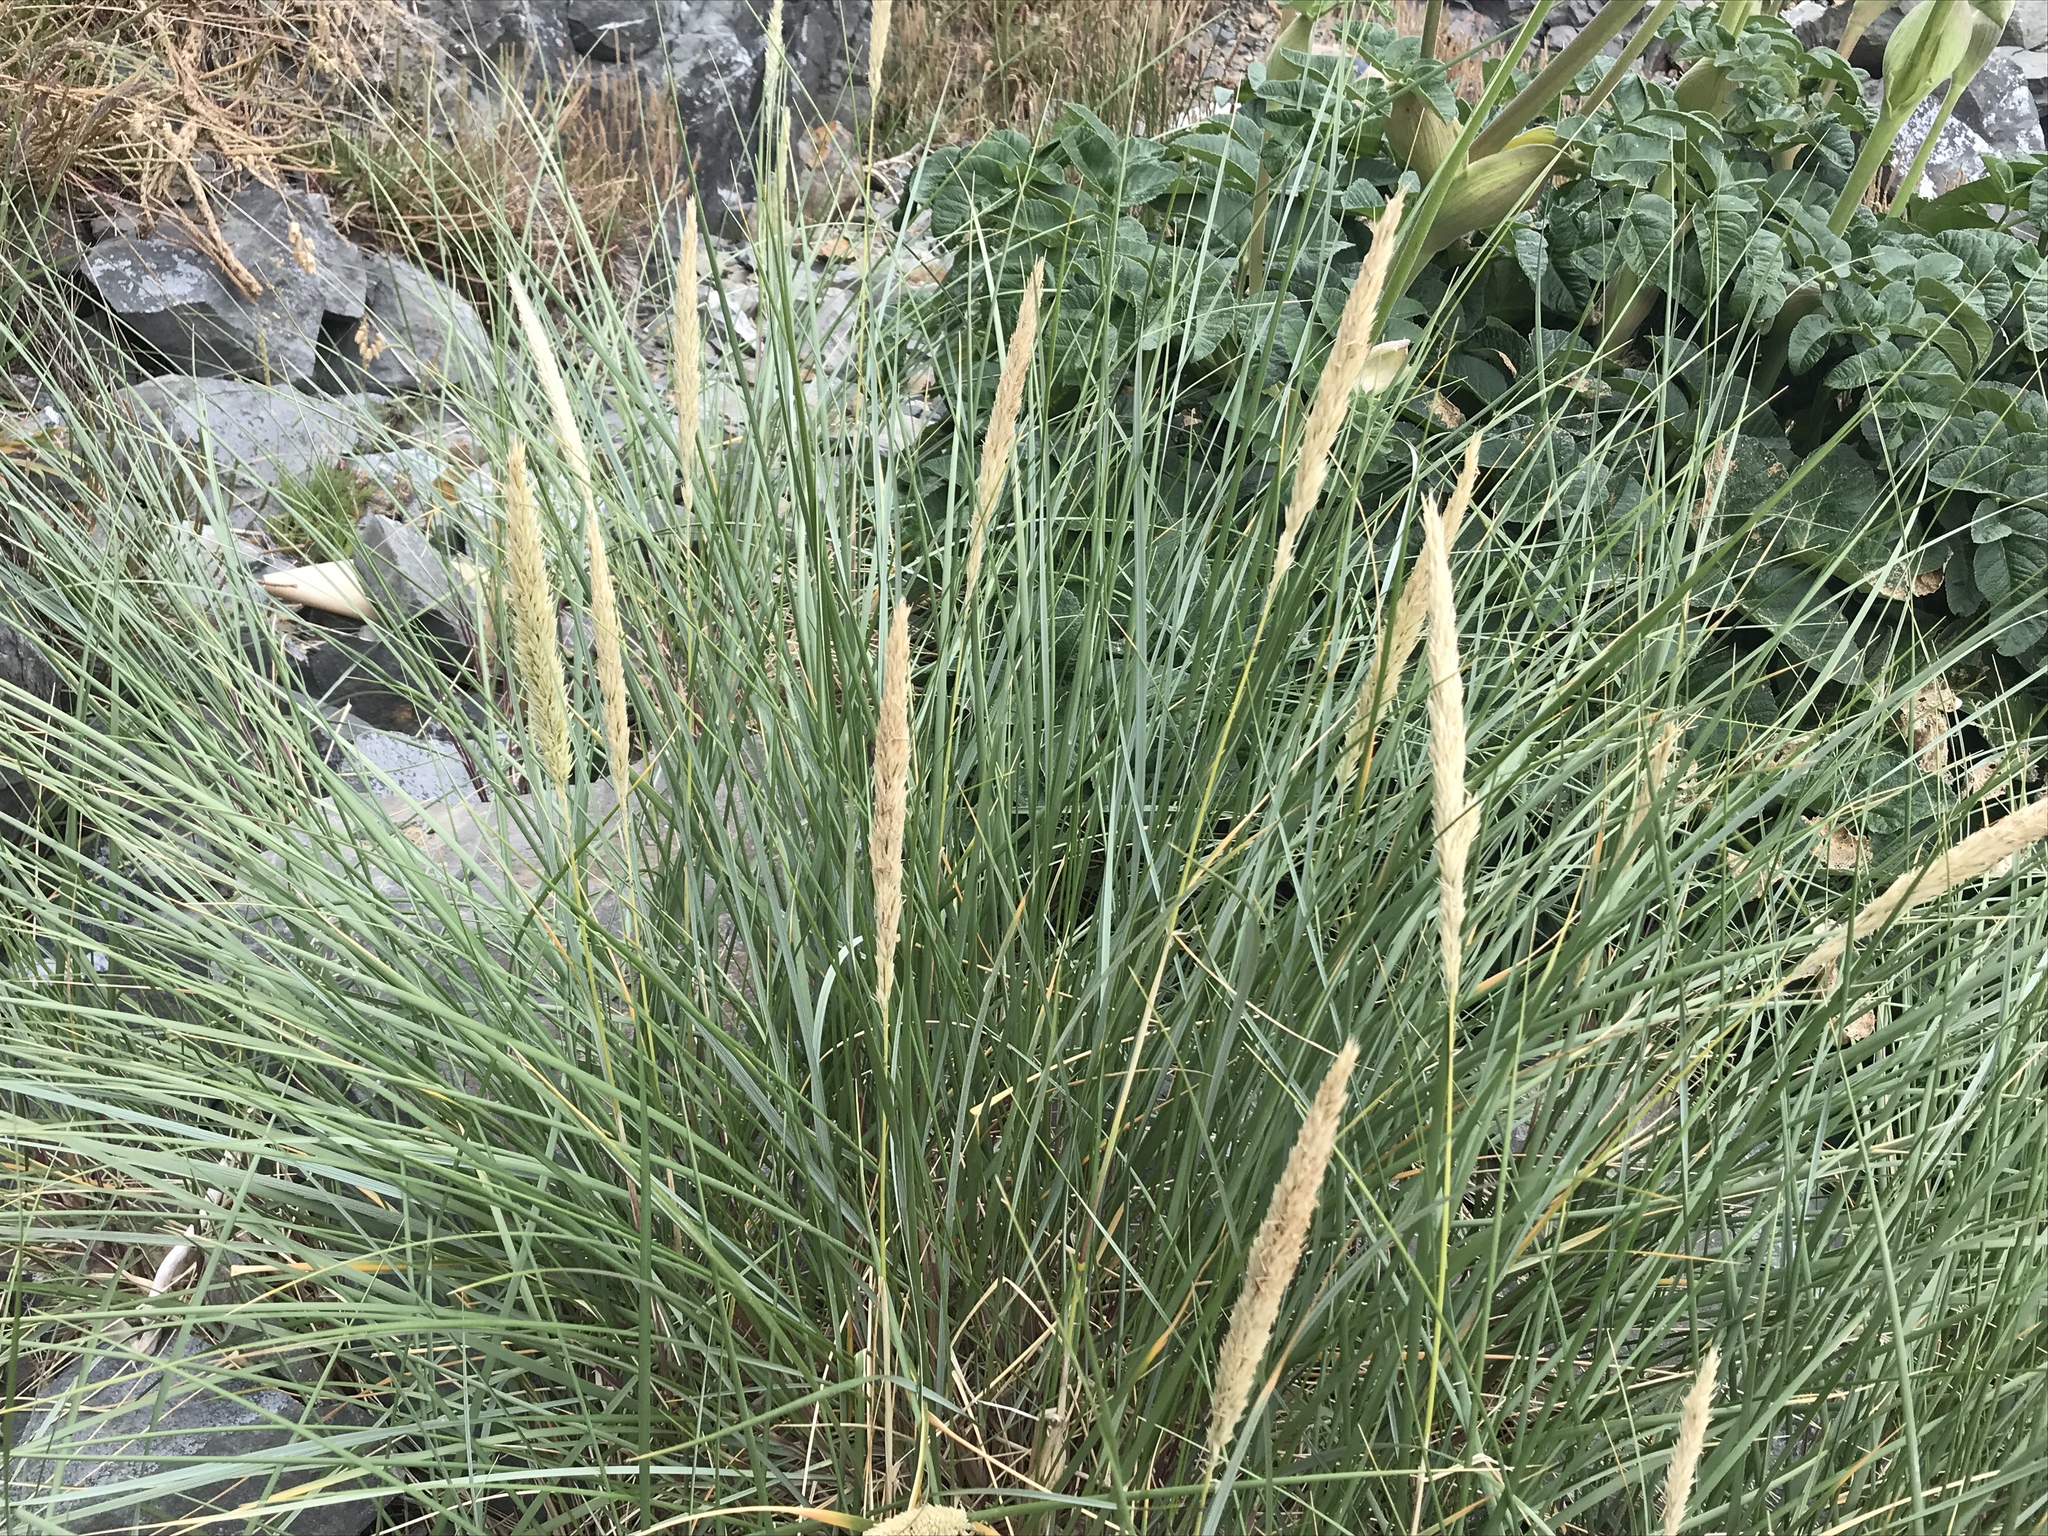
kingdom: Plantae
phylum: Tracheophyta
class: Liliopsida
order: Poales
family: Poaceae
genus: Calamagrostis
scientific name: Calamagrostis arenaria
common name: European beachgrass
